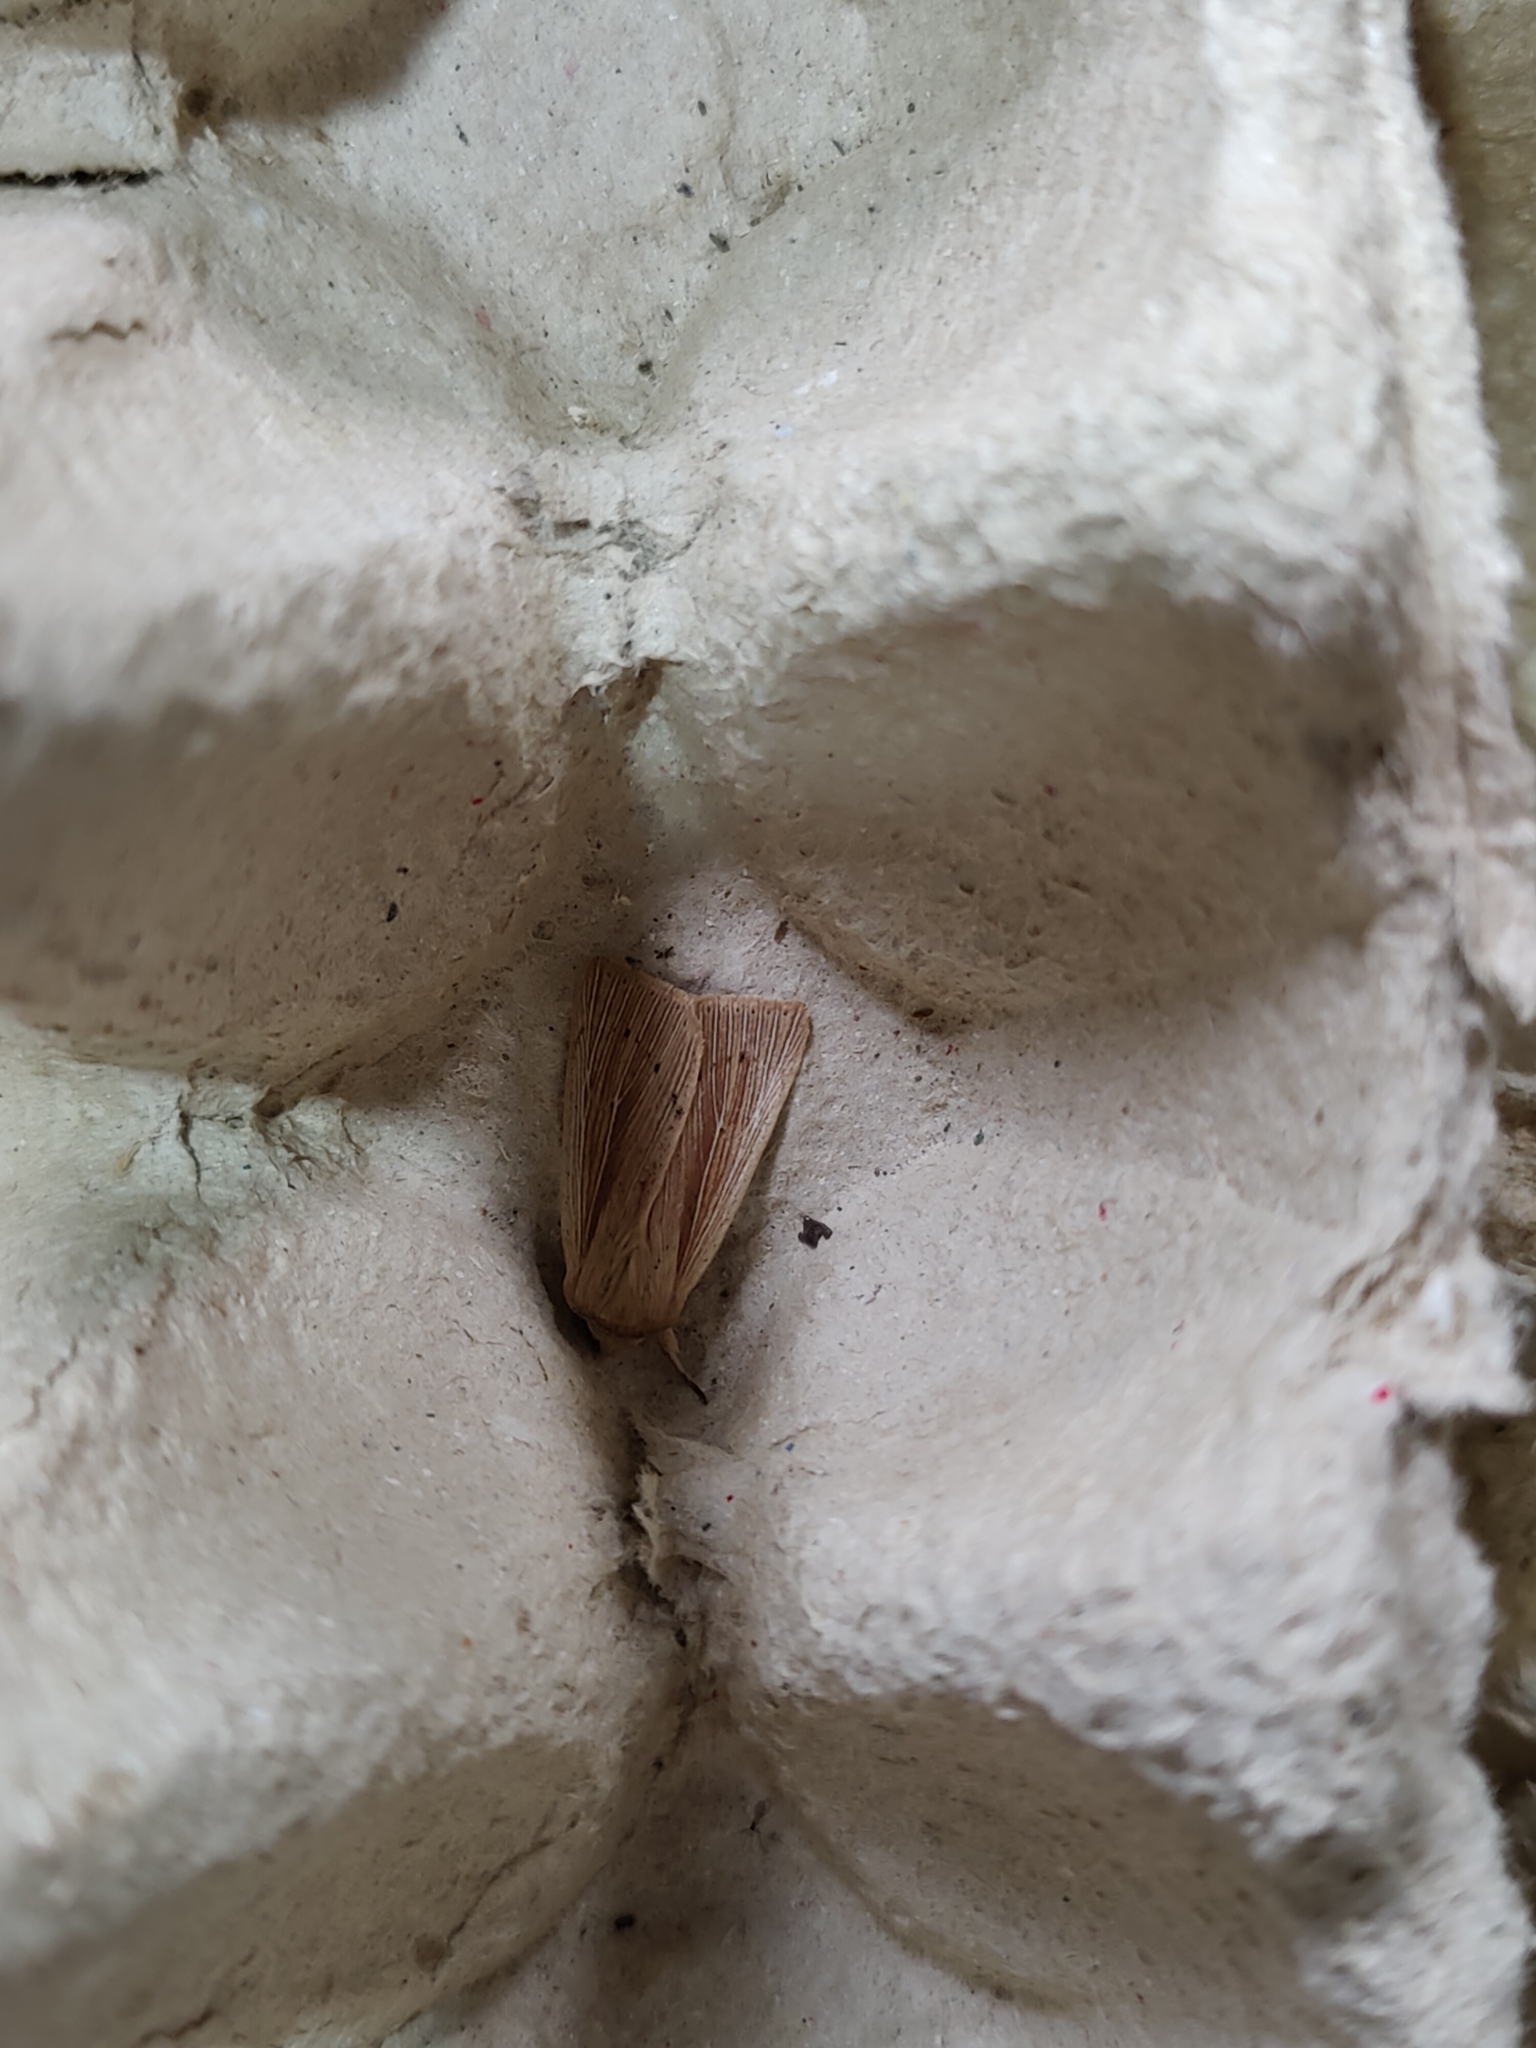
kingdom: Animalia
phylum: Arthropoda
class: Insecta
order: Lepidoptera
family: Noctuidae
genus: Mythimna
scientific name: Mythimna impura
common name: Smoky wainscot
